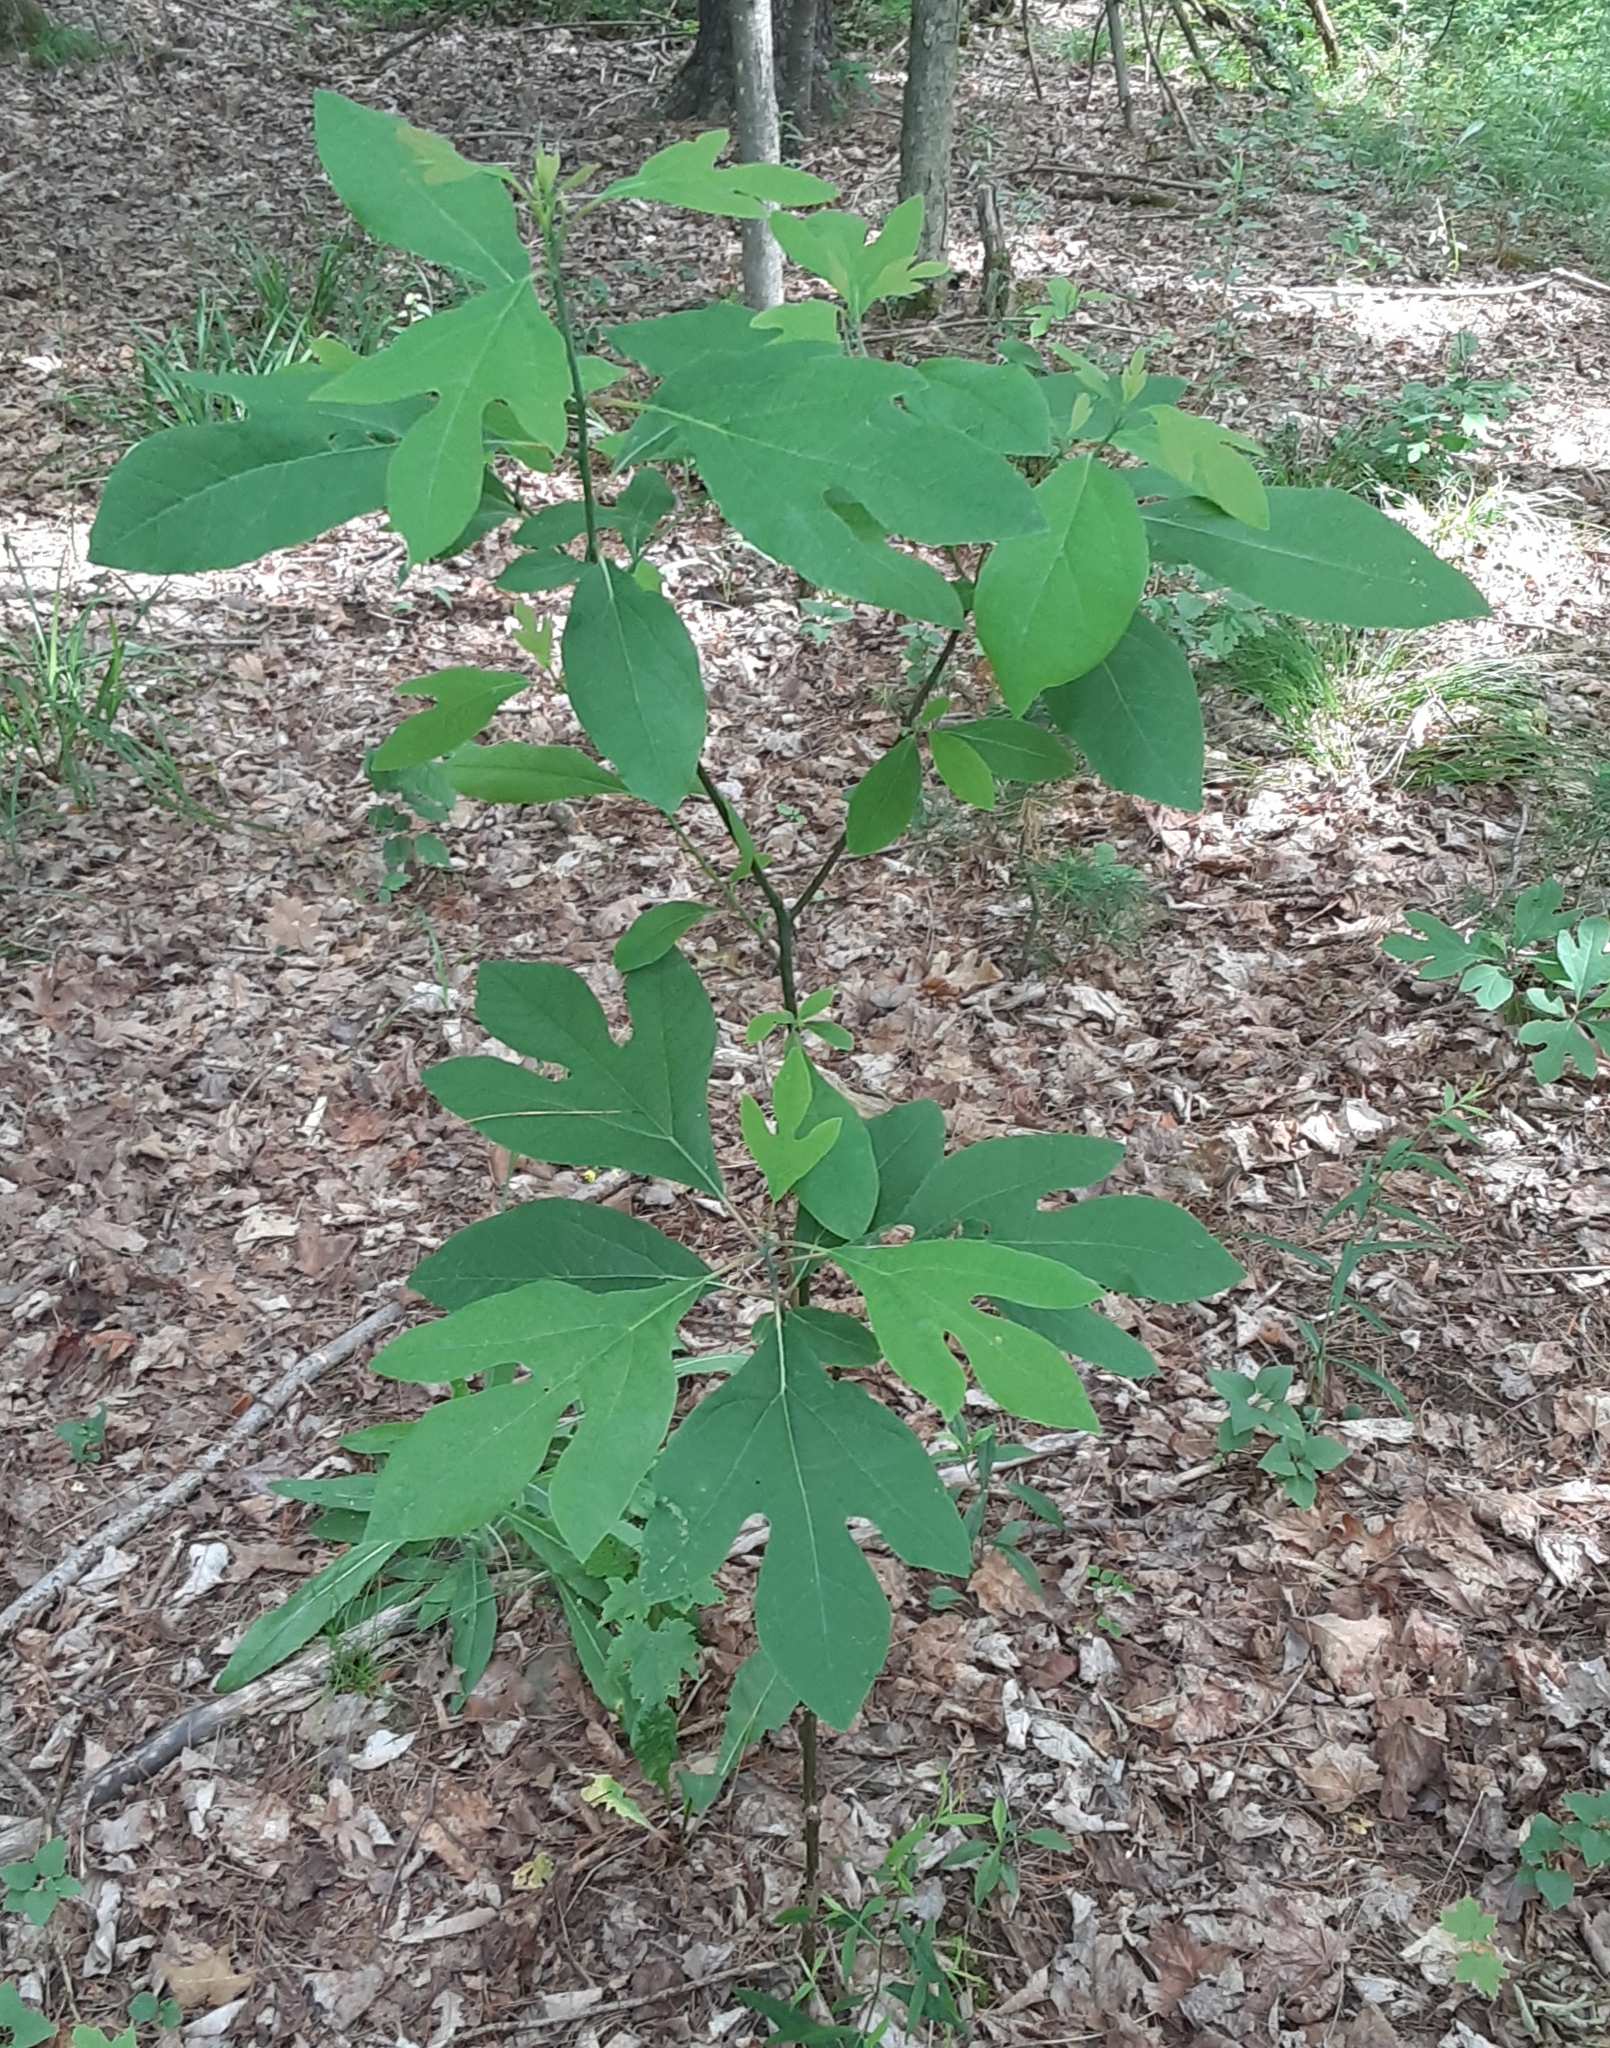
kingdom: Plantae
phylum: Tracheophyta
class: Magnoliopsida
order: Laurales
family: Lauraceae
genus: Sassafras
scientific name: Sassafras albidum
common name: Sassafras
